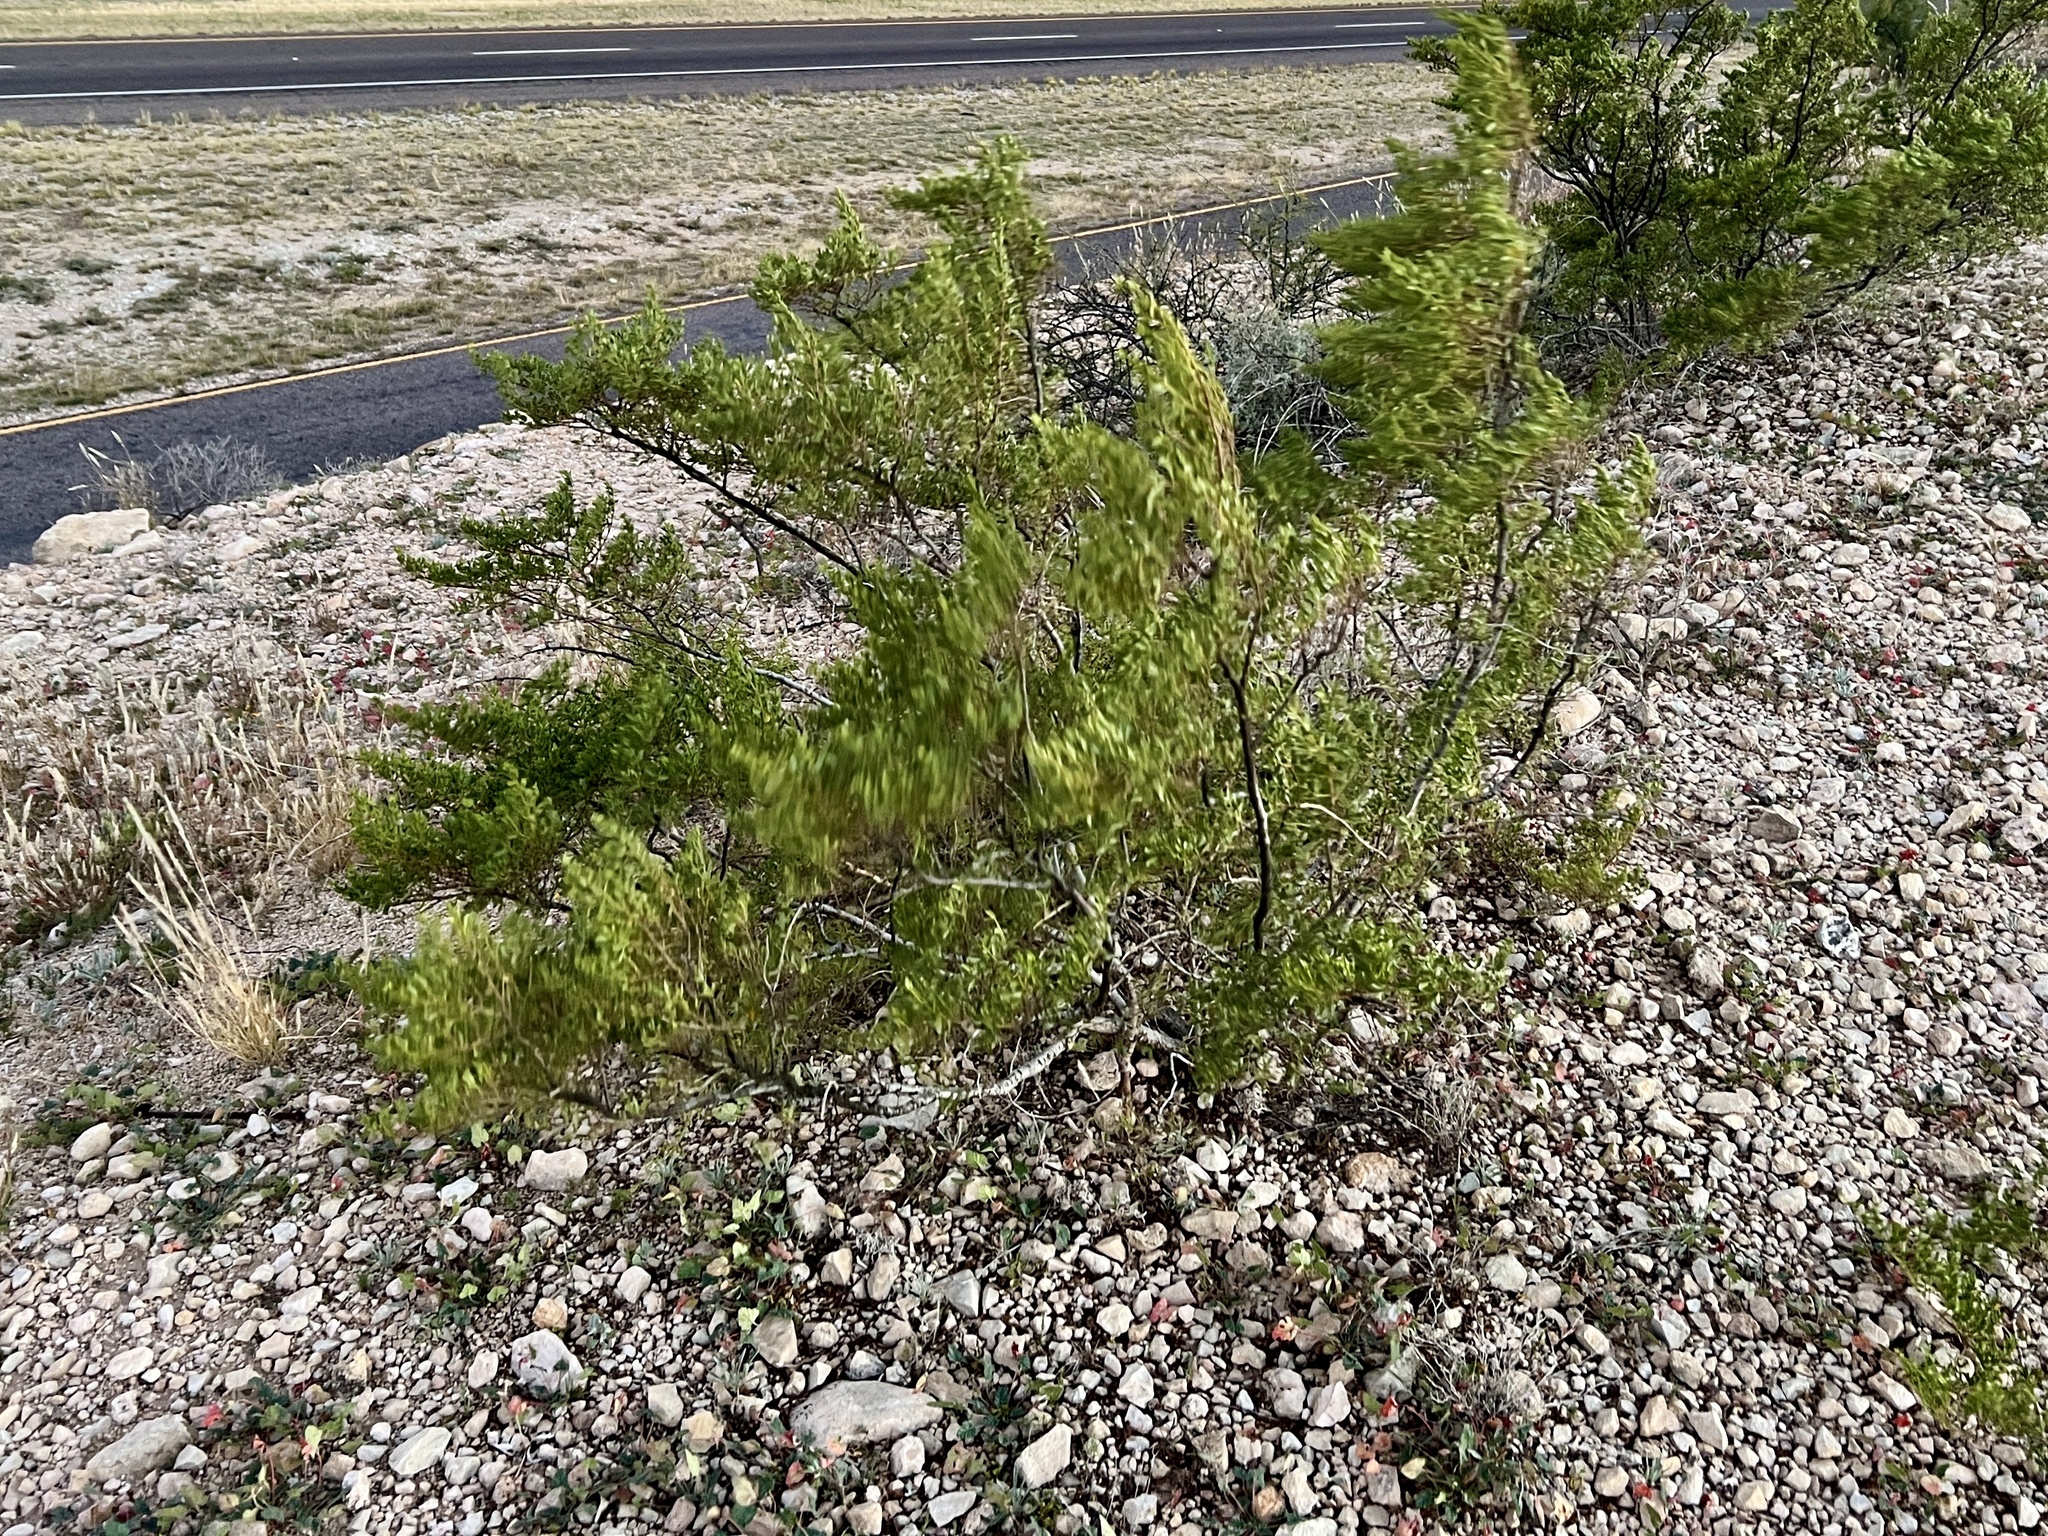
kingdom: Plantae
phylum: Tracheophyta
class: Magnoliopsida
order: Zygophyllales
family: Zygophyllaceae
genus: Larrea
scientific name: Larrea tridentata
